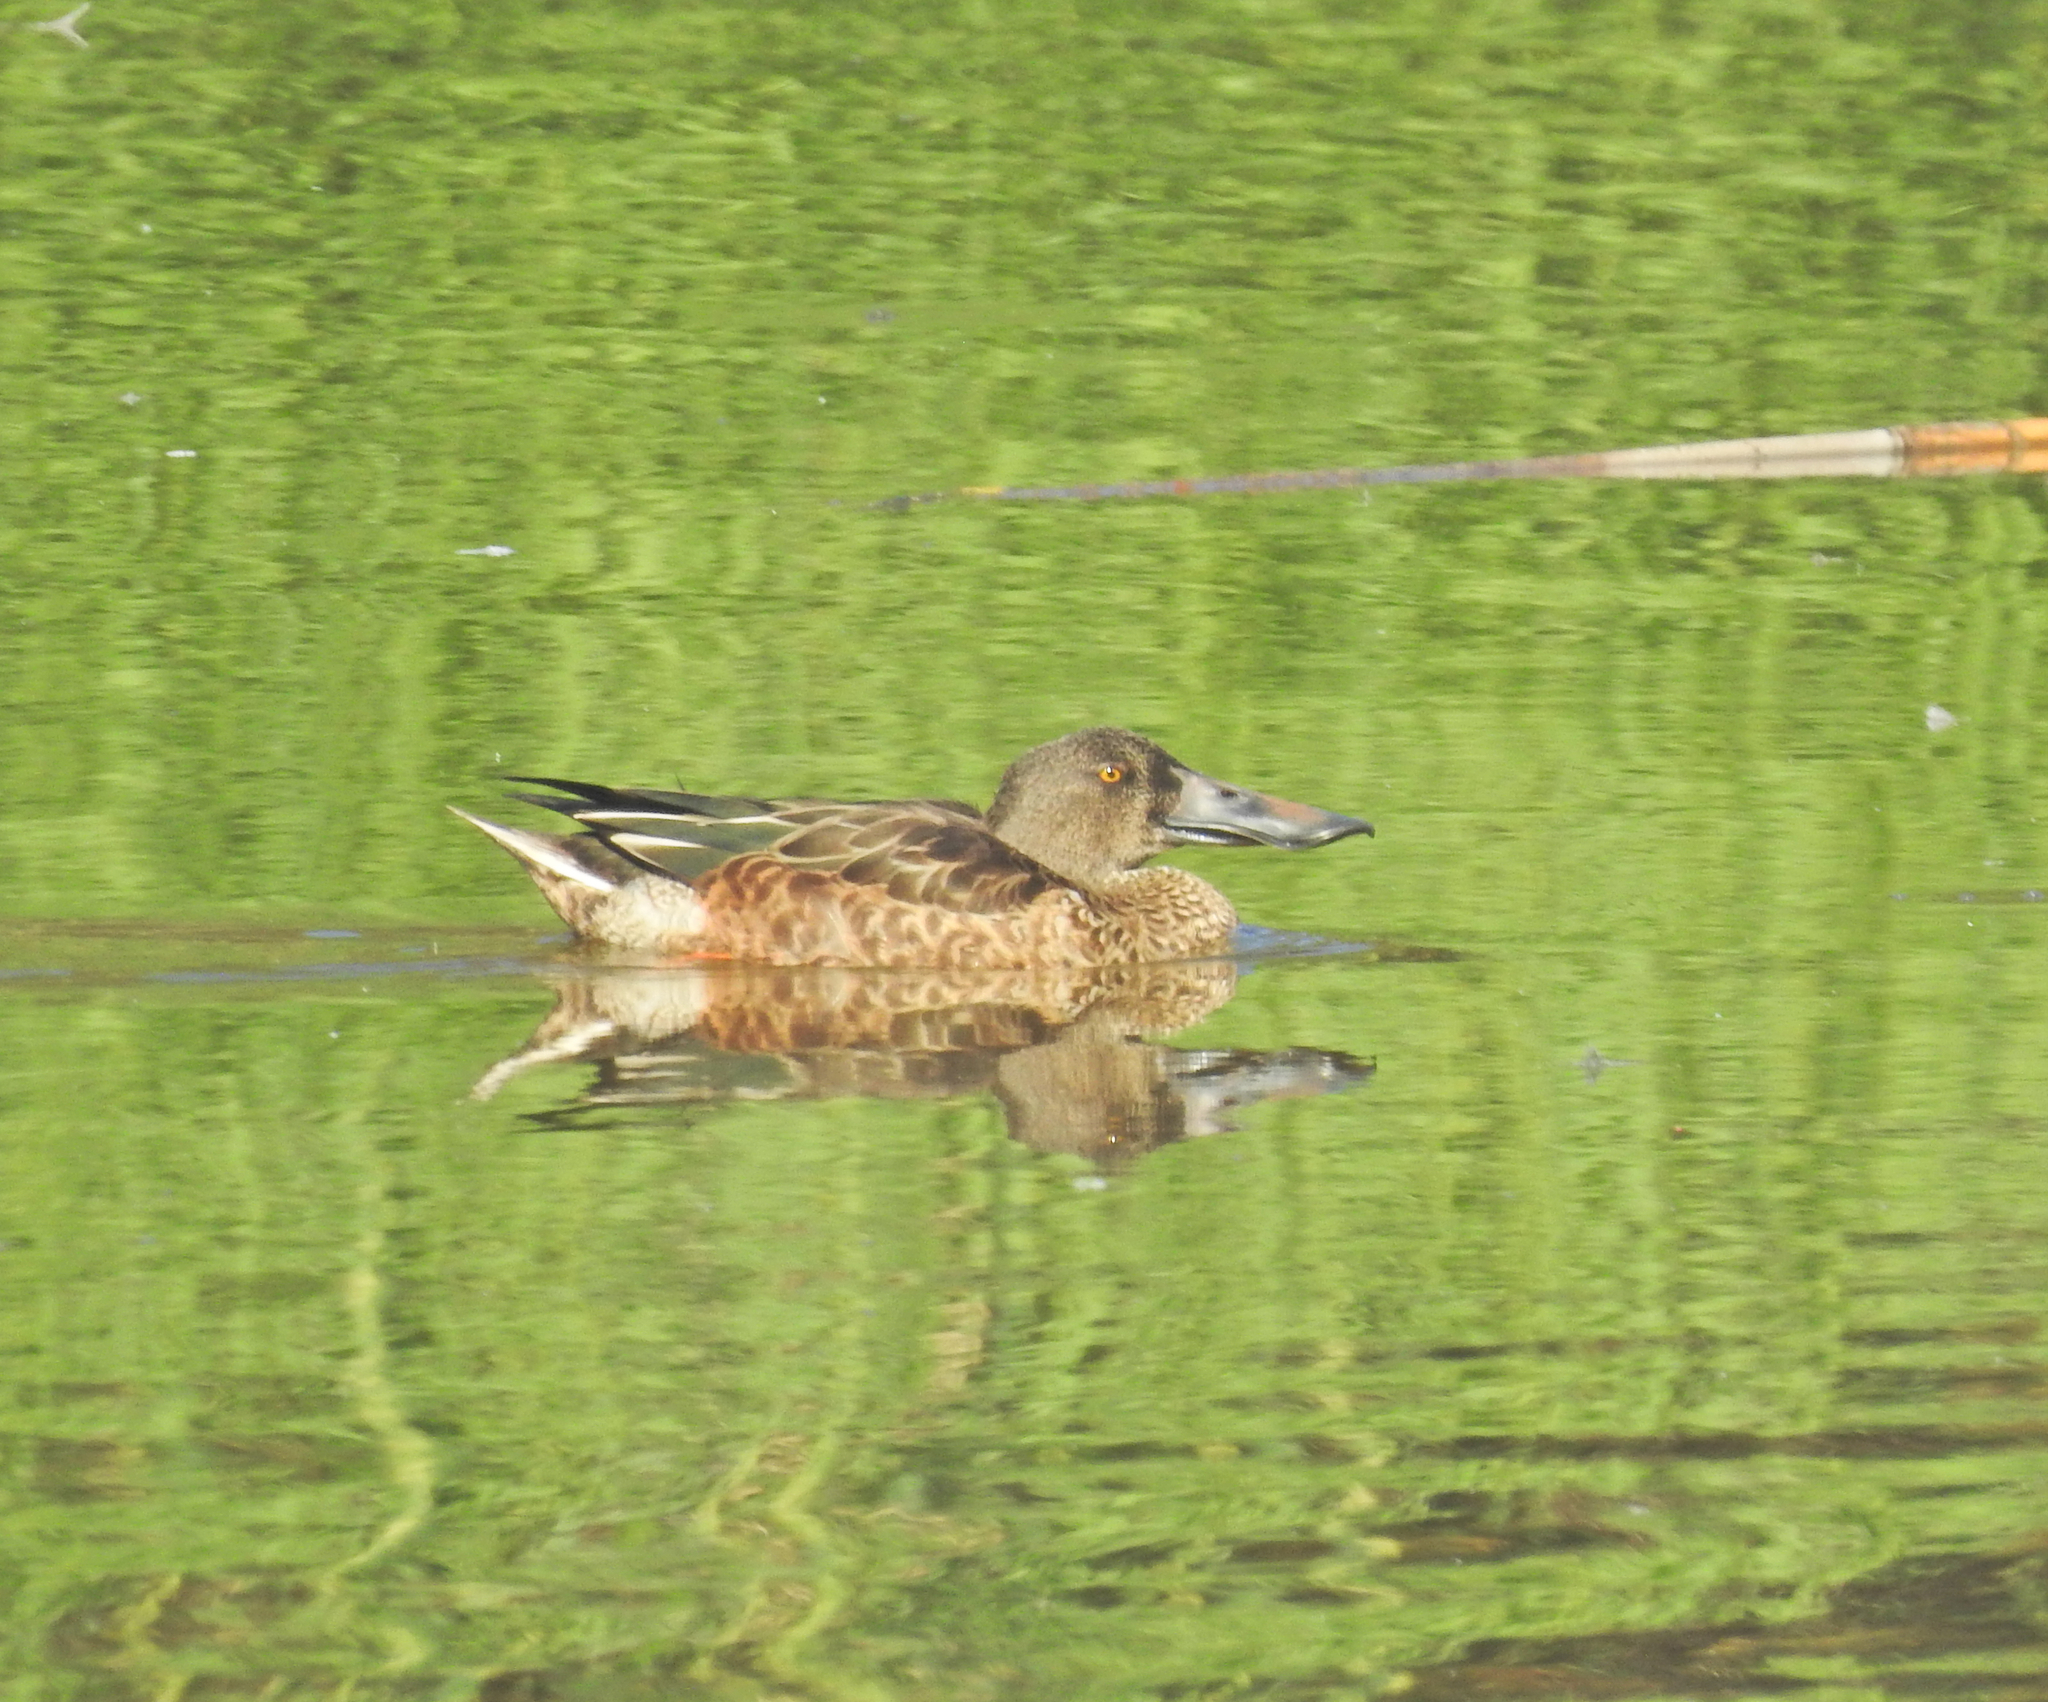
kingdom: Animalia
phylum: Chordata
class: Aves
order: Anseriformes
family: Anatidae
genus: Spatula
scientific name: Spatula clypeata
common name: Northern shoveler
